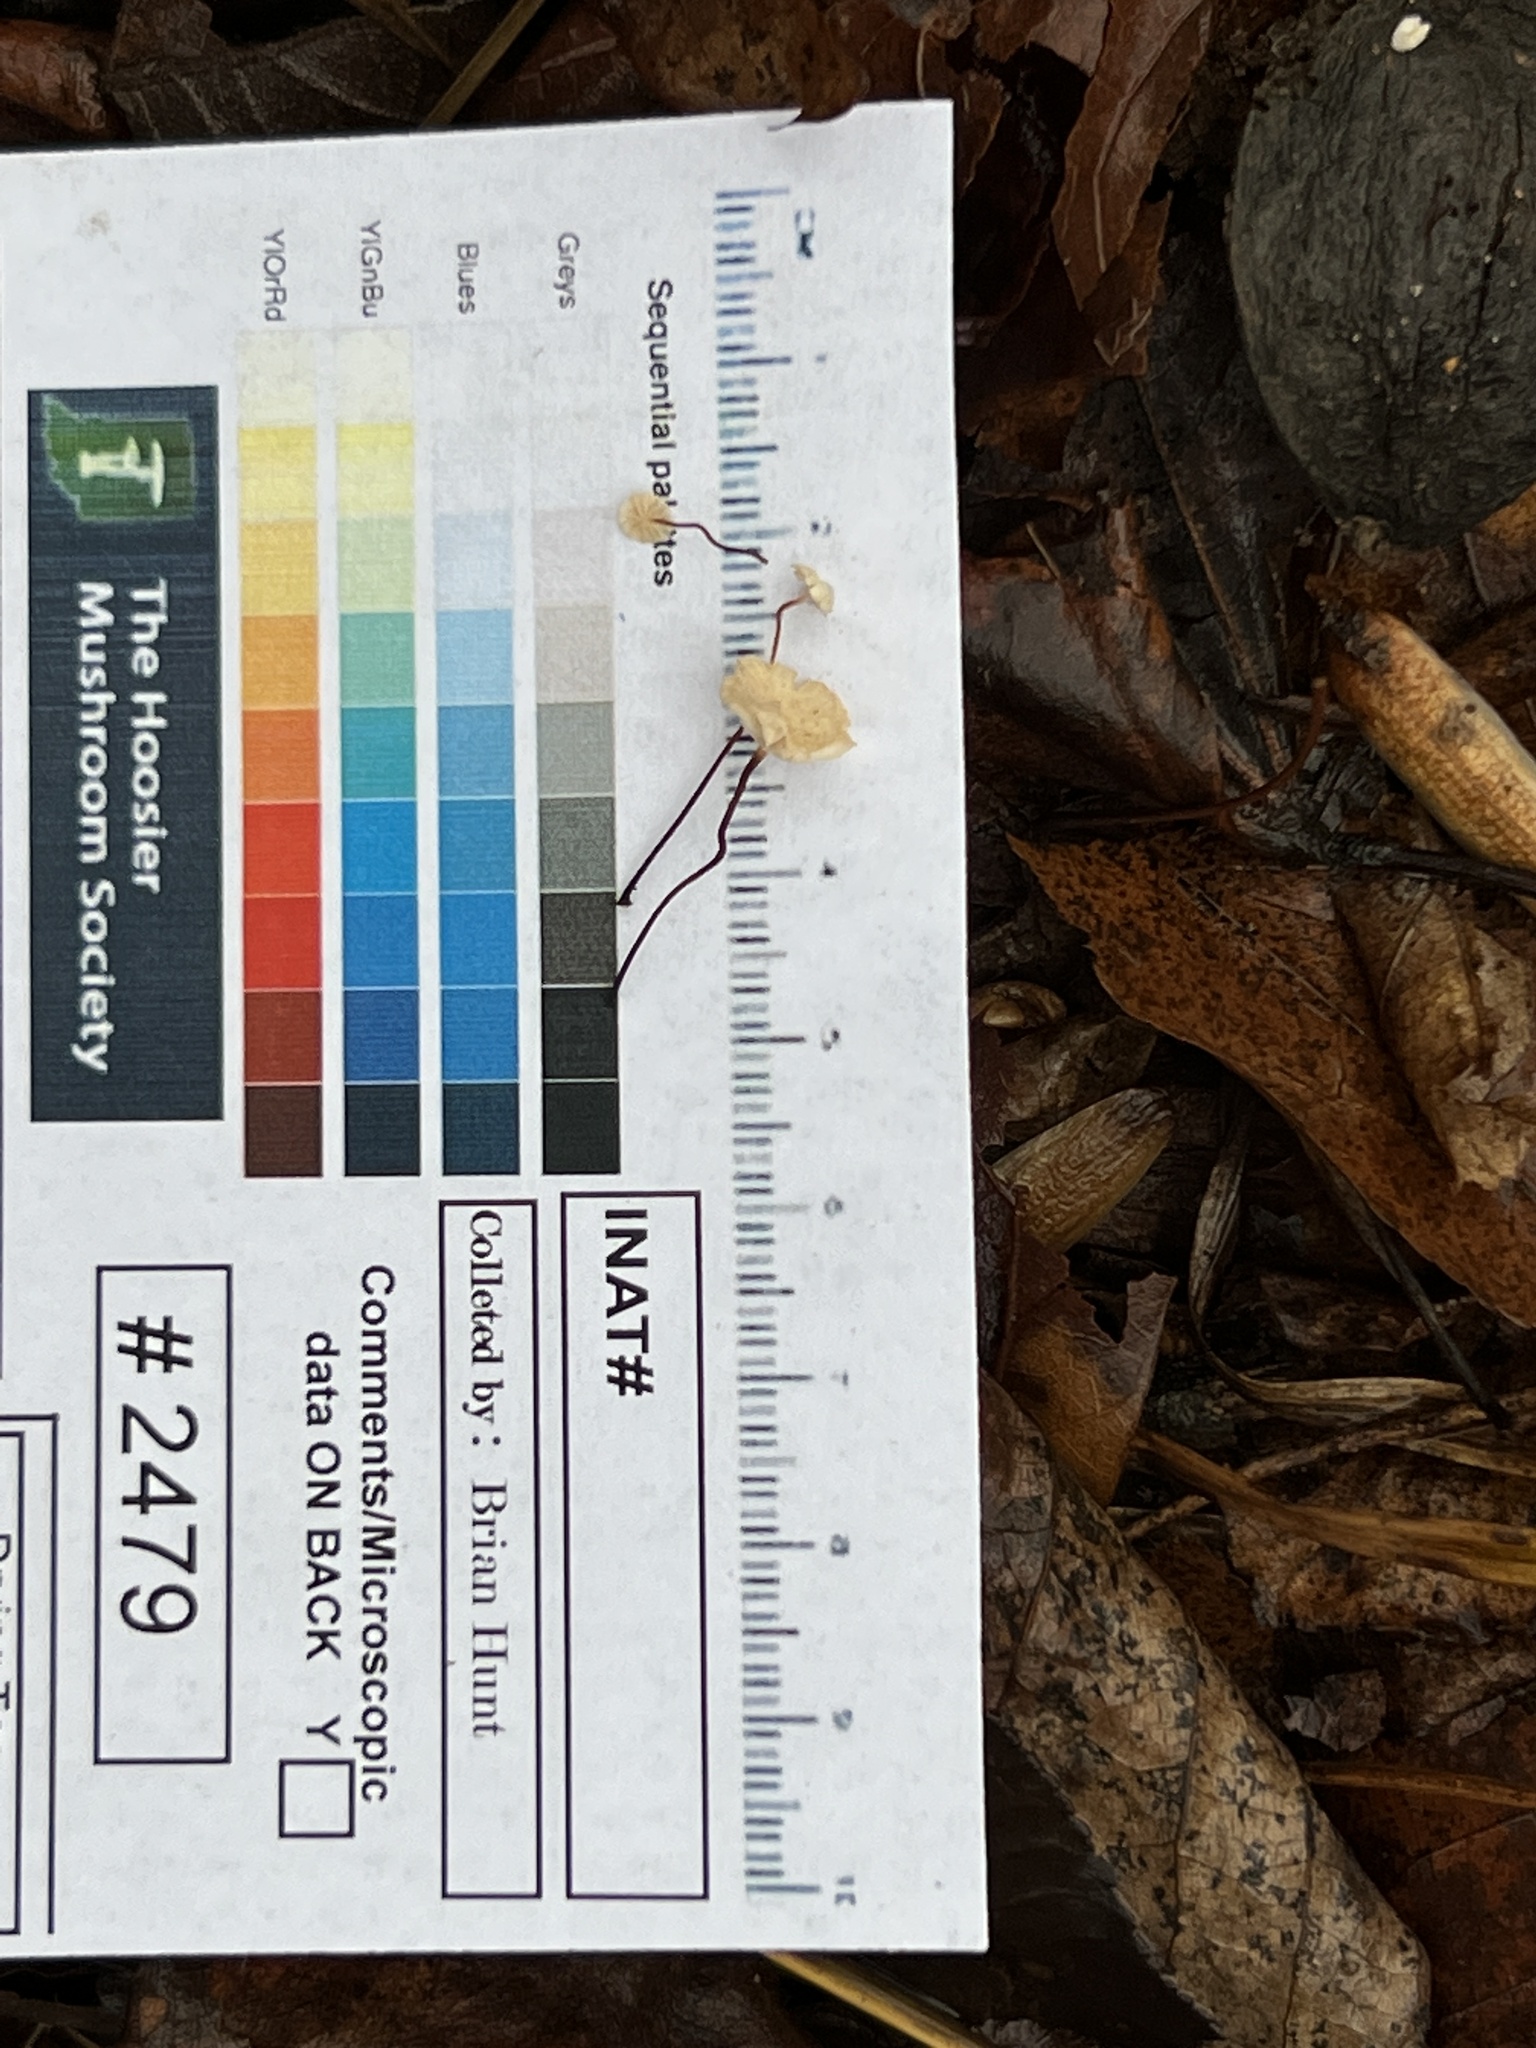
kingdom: Fungi
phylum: Basidiomycota
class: Agaricomycetes
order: Agaricales
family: Marasmiaceae
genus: Marasmius
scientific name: Marasmius felix
